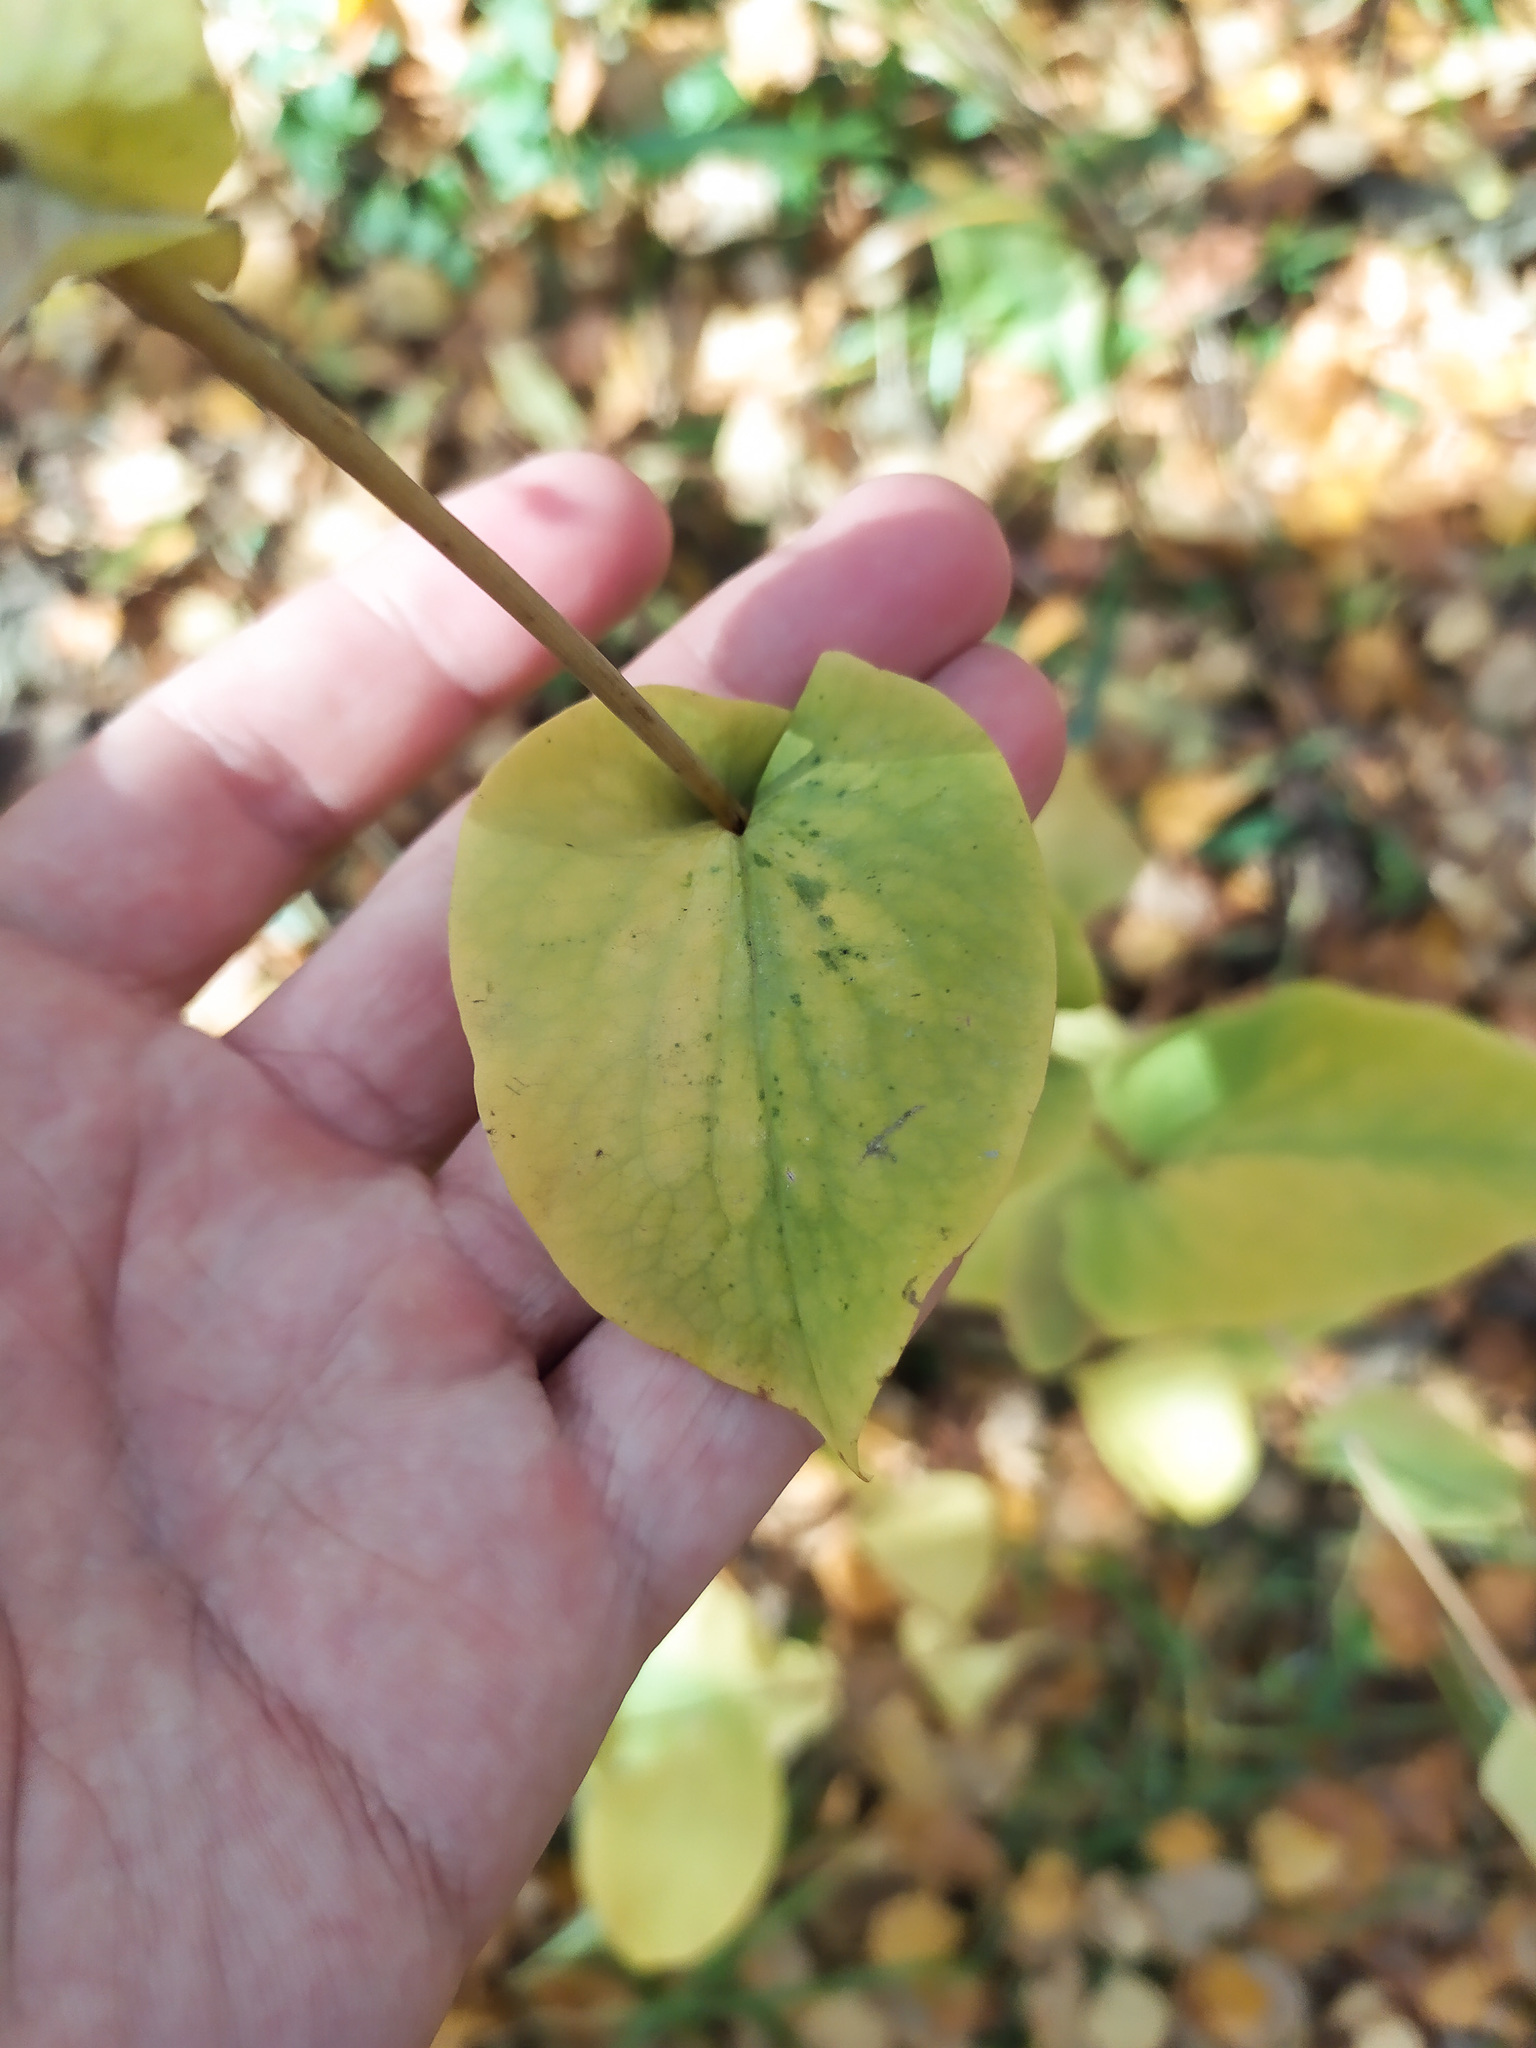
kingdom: Plantae
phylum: Tracheophyta
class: Magnoliopsida
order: Apiales
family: Apiaceae
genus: Bupleurum
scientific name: Bupleurum aureum
